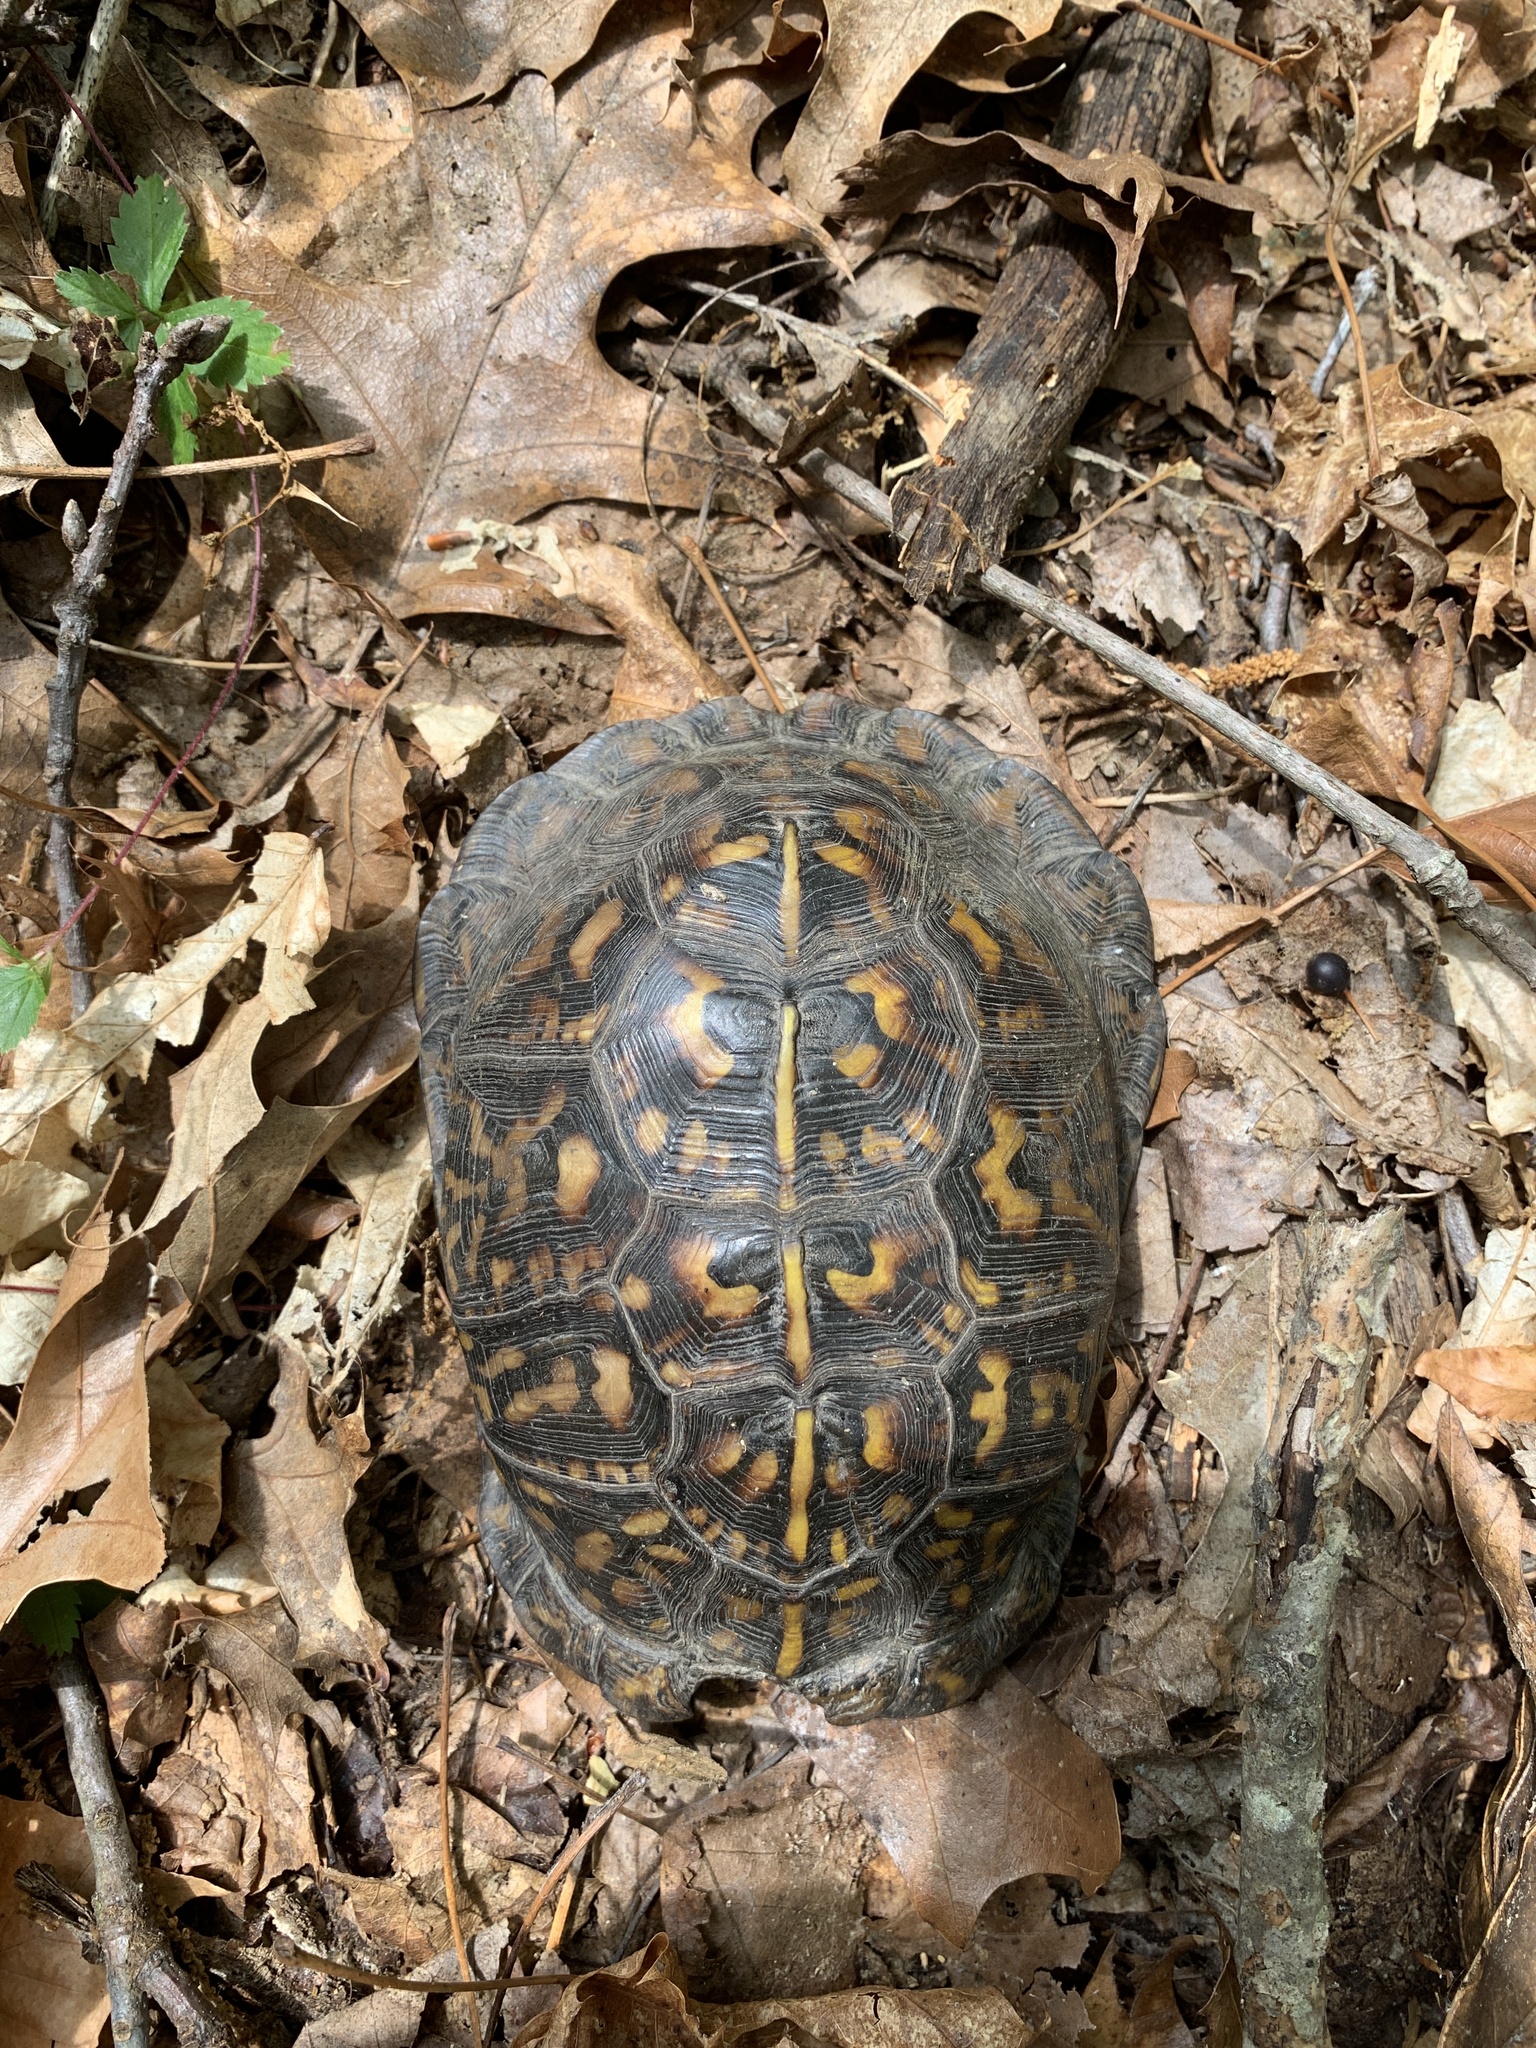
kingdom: Animalia
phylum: Chordata
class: Testudines
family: Emydidae
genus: Terrapene
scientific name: Terrapene carolina
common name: Common box turtle
